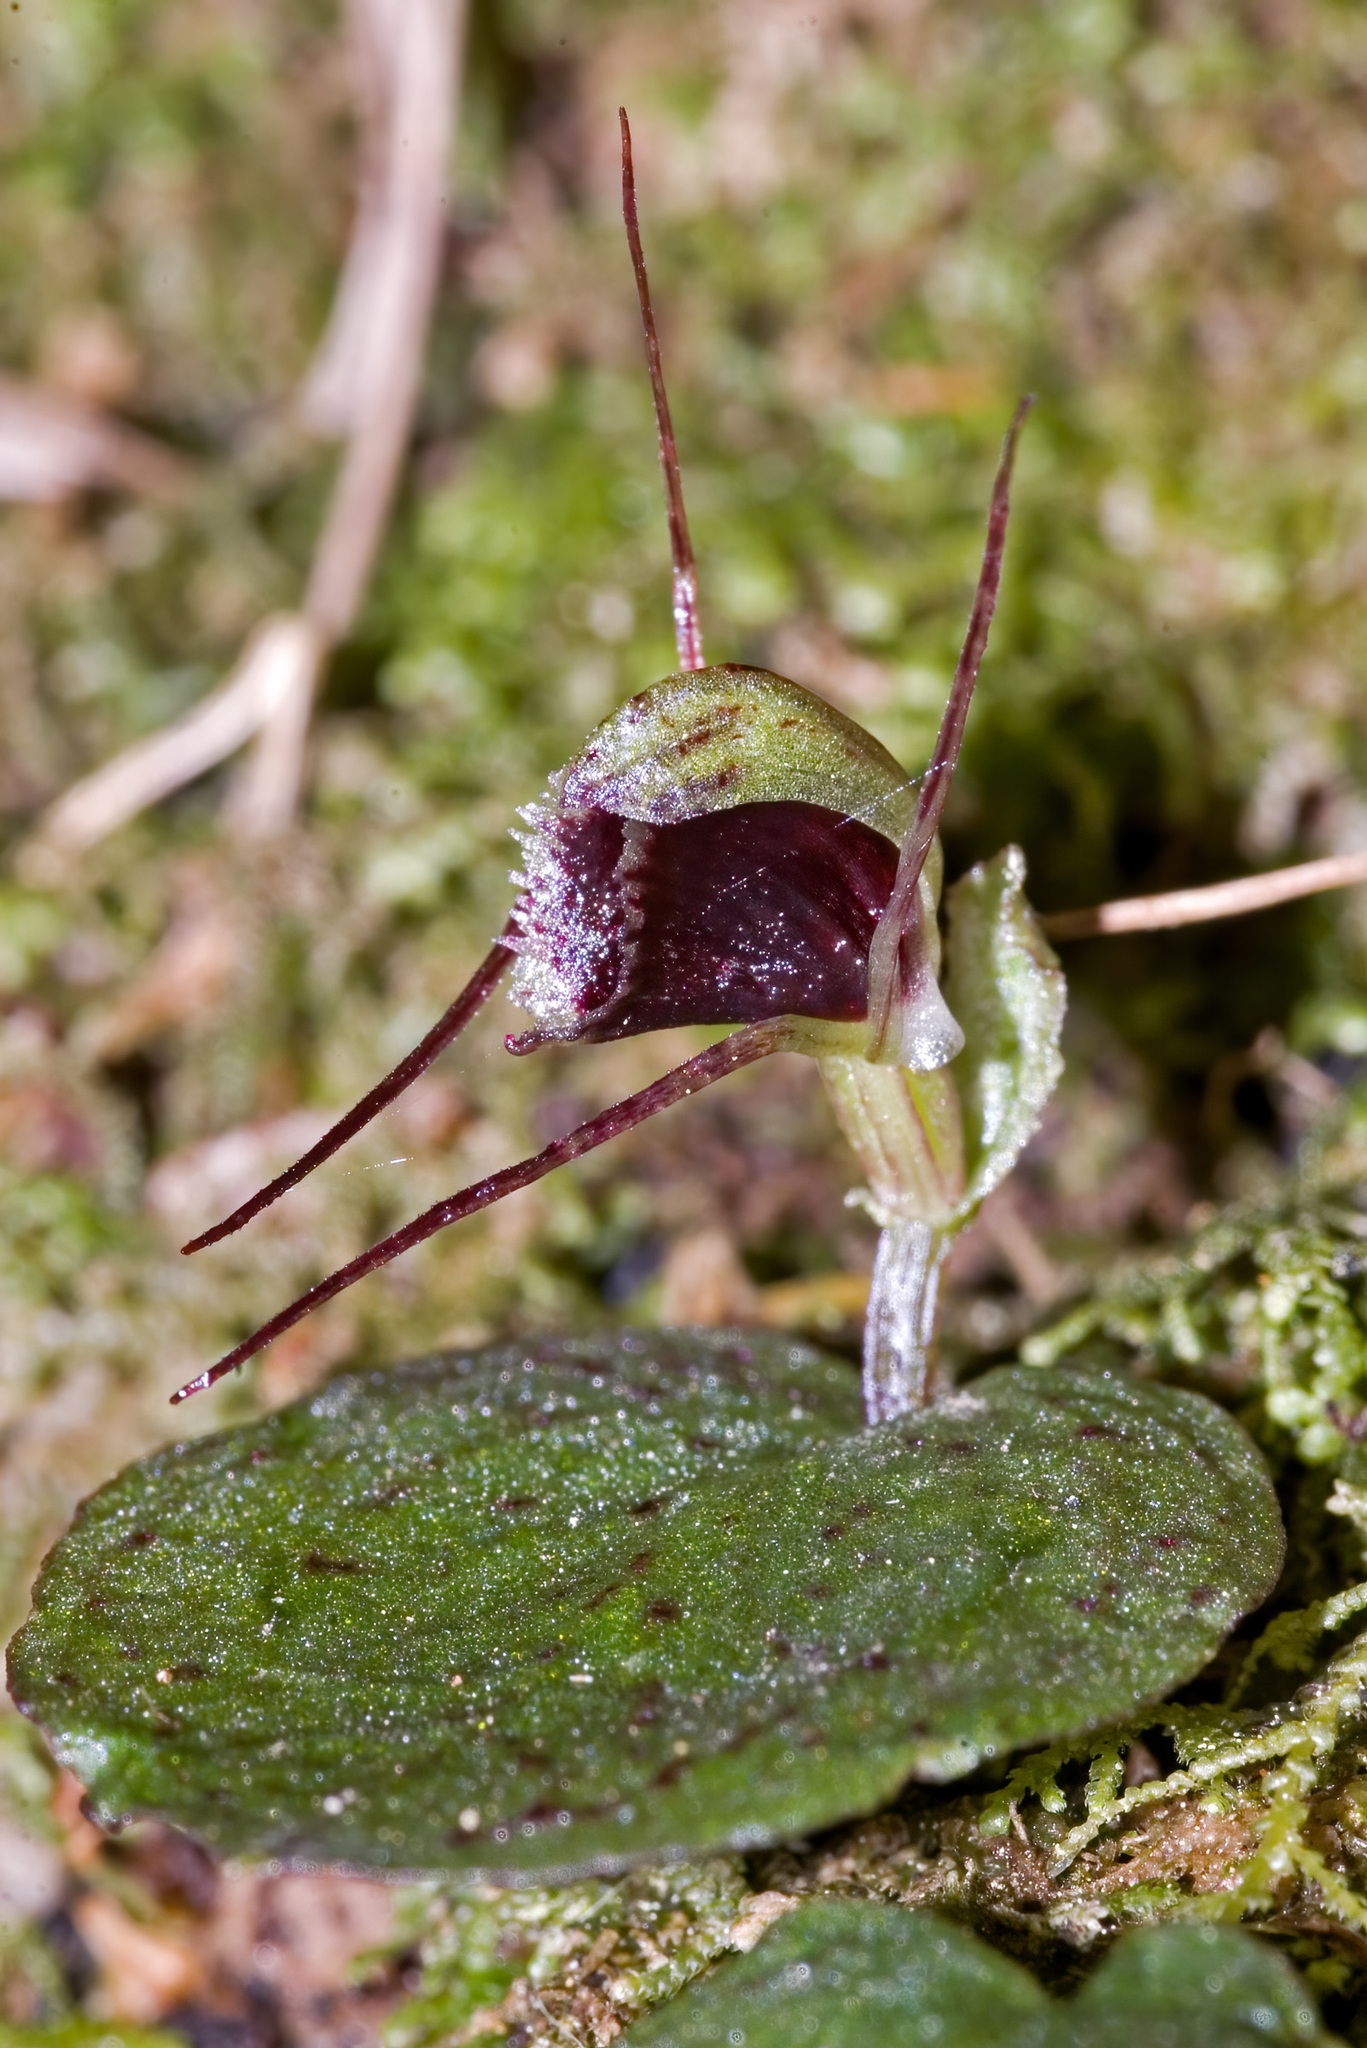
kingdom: Plantae
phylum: Tracheophyta
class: Liliopsida
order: Asparagales
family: Orchidaceae
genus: Corybas
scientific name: Corybas oblongus
